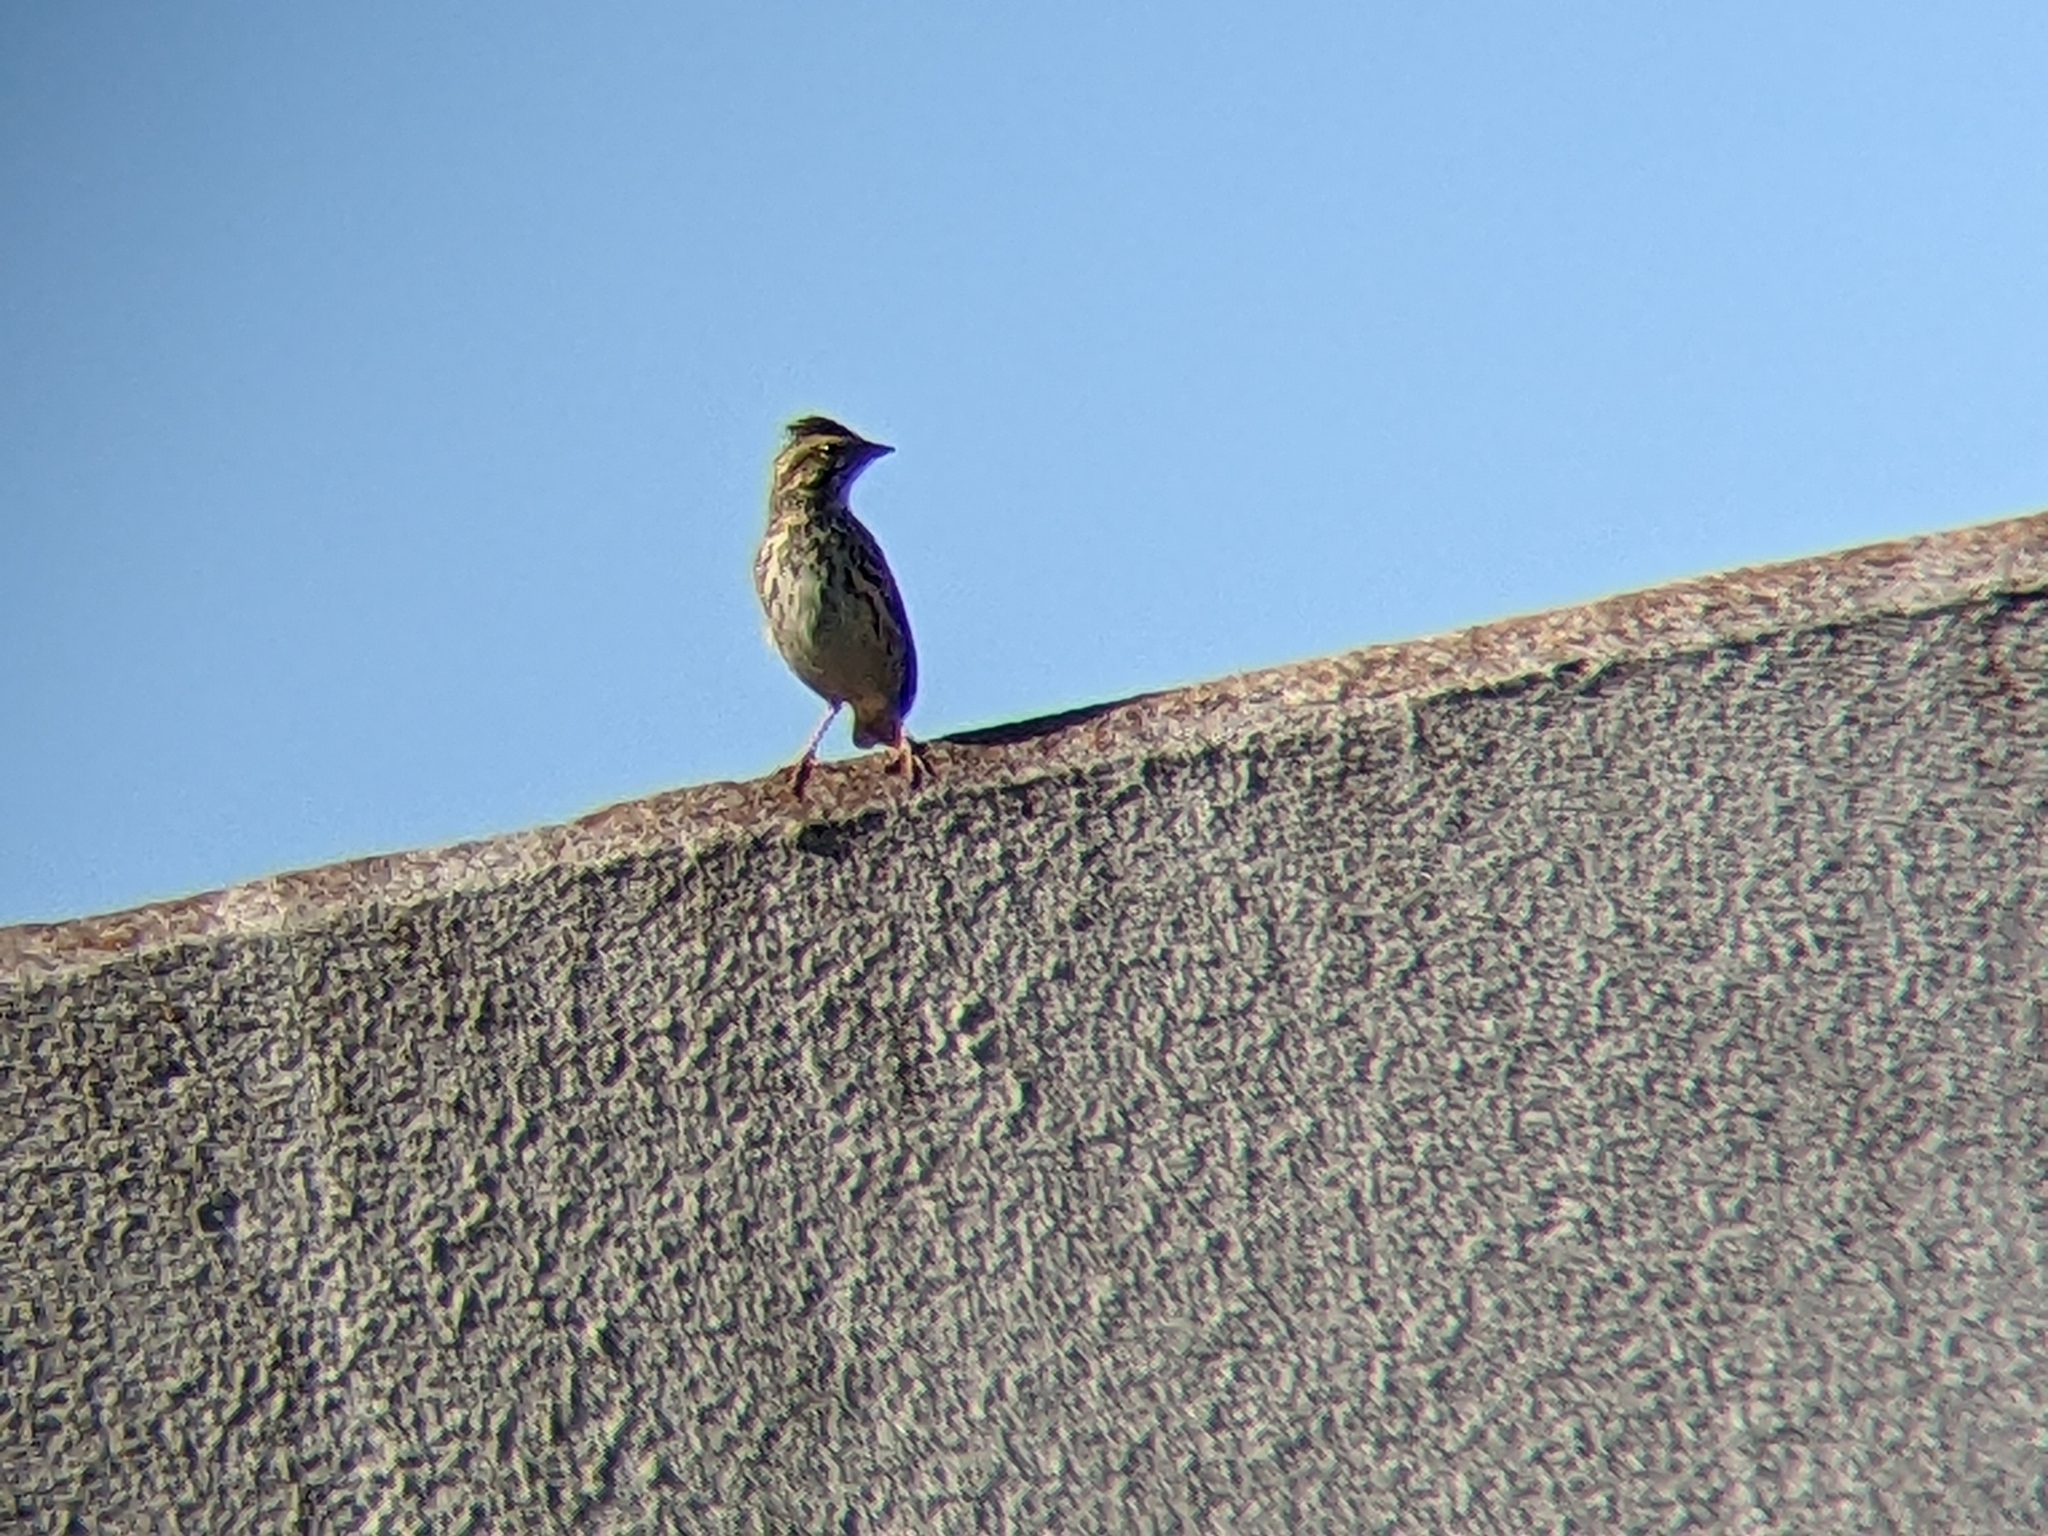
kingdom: Animalia
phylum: Chordata
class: Aves
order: Passeriformes
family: Passerellidae
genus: Passerculus
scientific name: Passerculus sandwichensis
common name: Savannah sparrow
